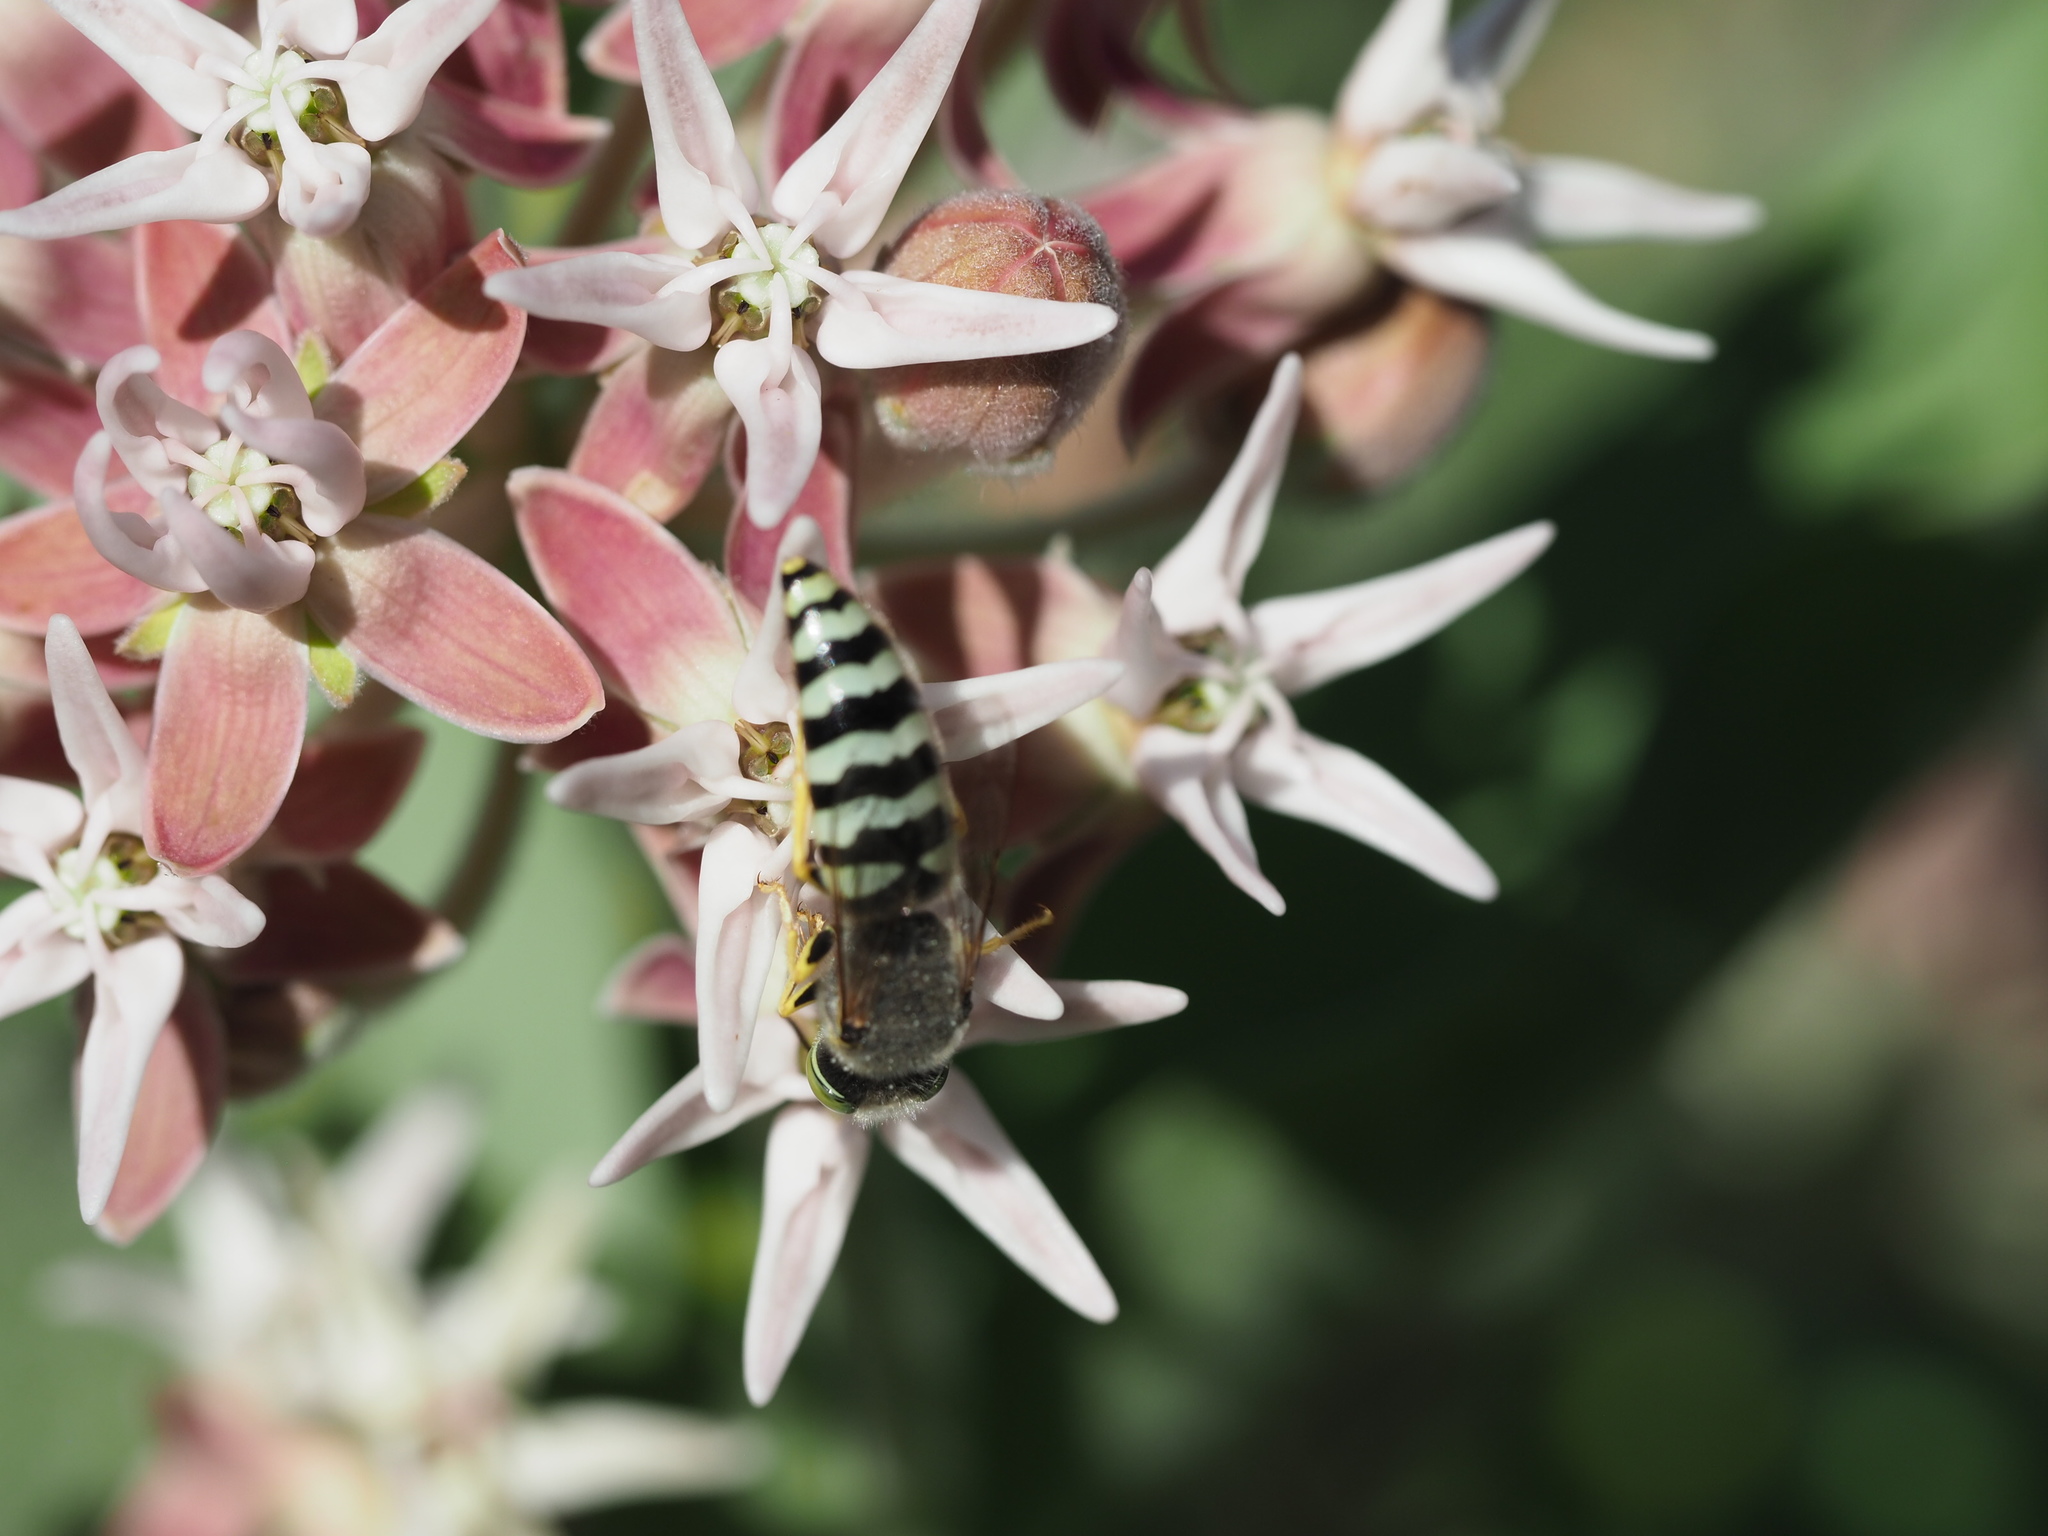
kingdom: Animalia
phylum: Arthropoda
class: Insecta
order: Hymenoptera
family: Crabronidae
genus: Bembix
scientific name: Bembix americana
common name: American sand wasp
